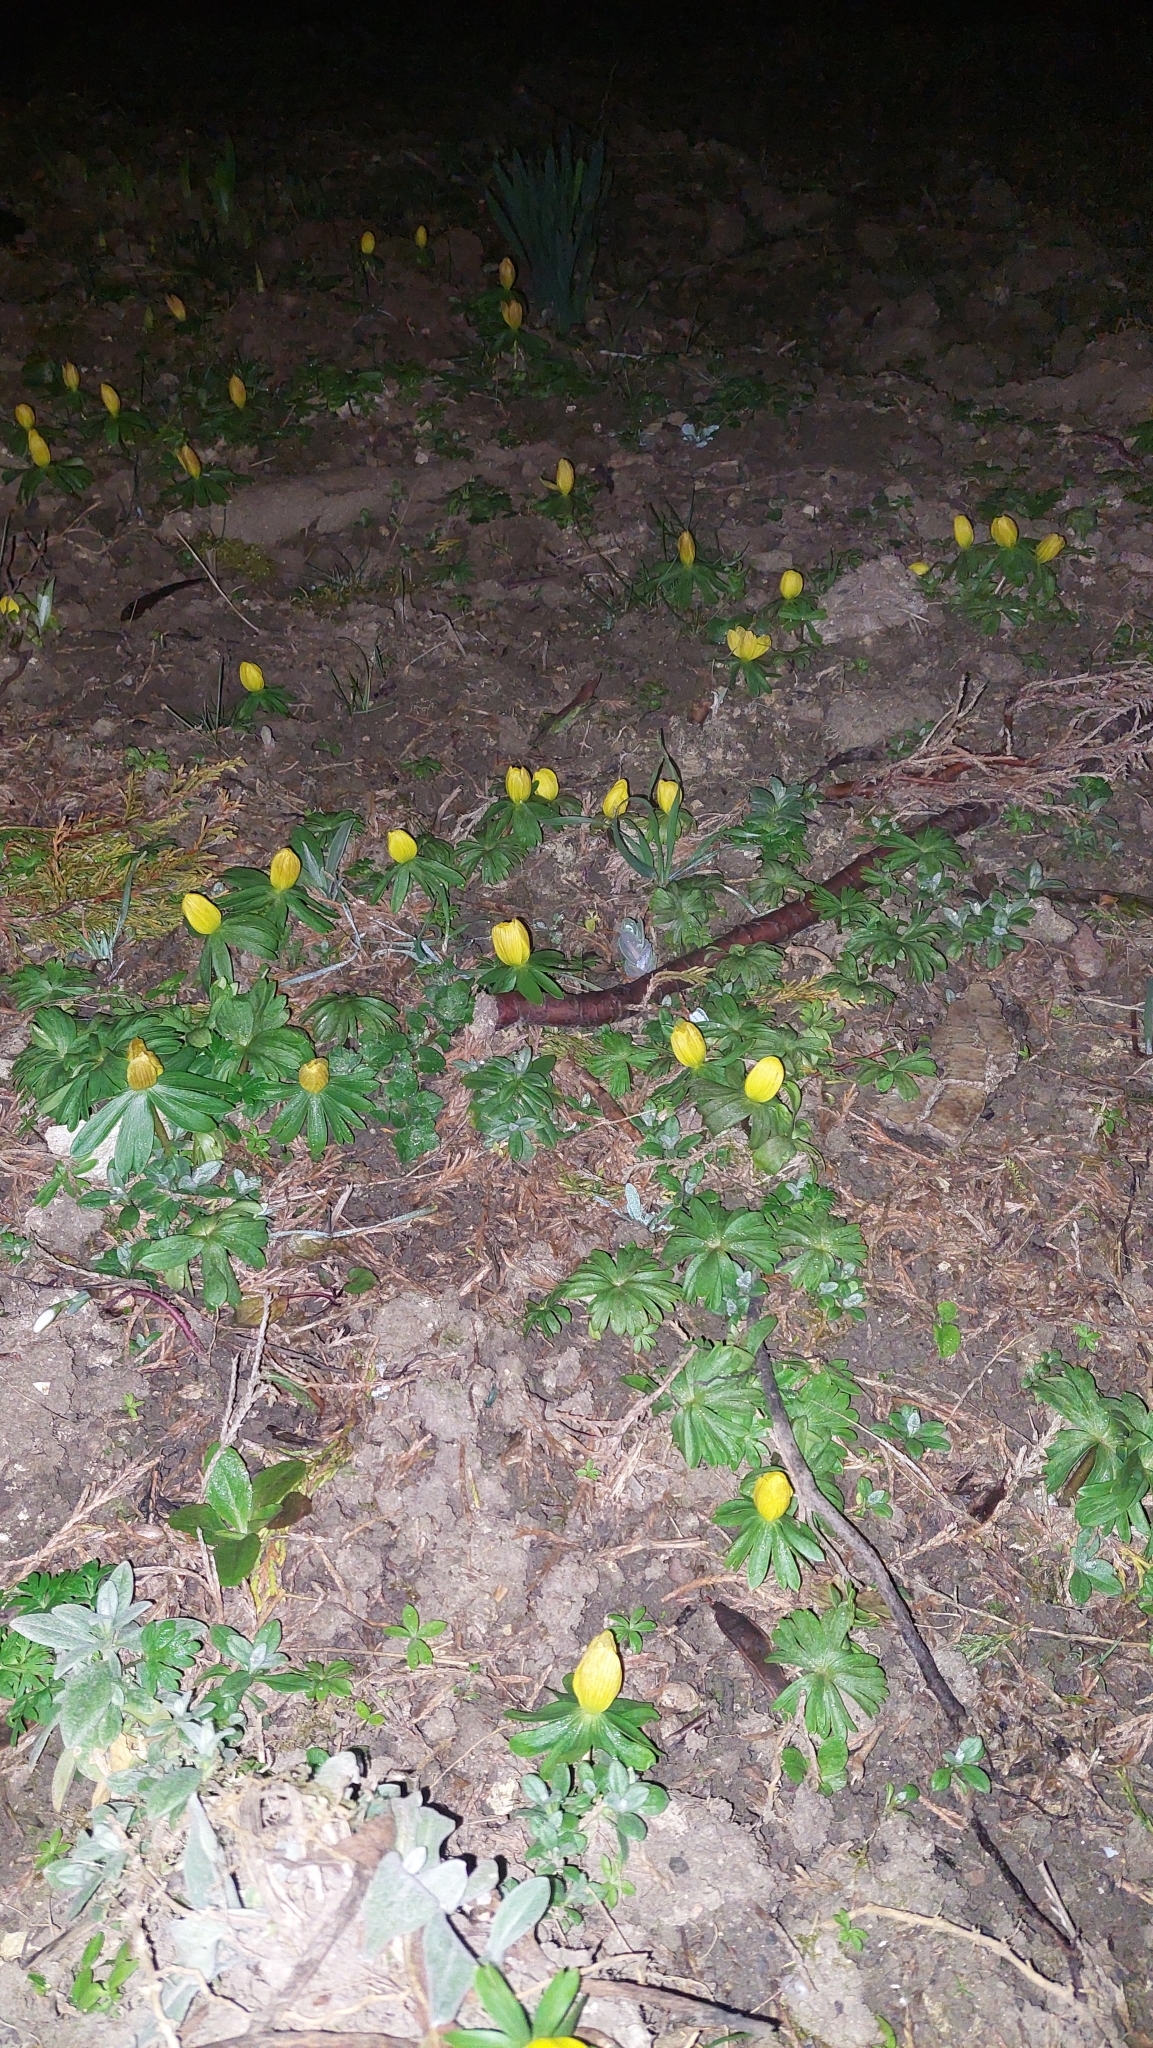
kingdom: Plantae
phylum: Tracheophyta
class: Magnoliopsida
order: Ranunculales
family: Ranunculaceae
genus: Eranthis
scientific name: Eranthis hyemalis
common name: Winter aconite
